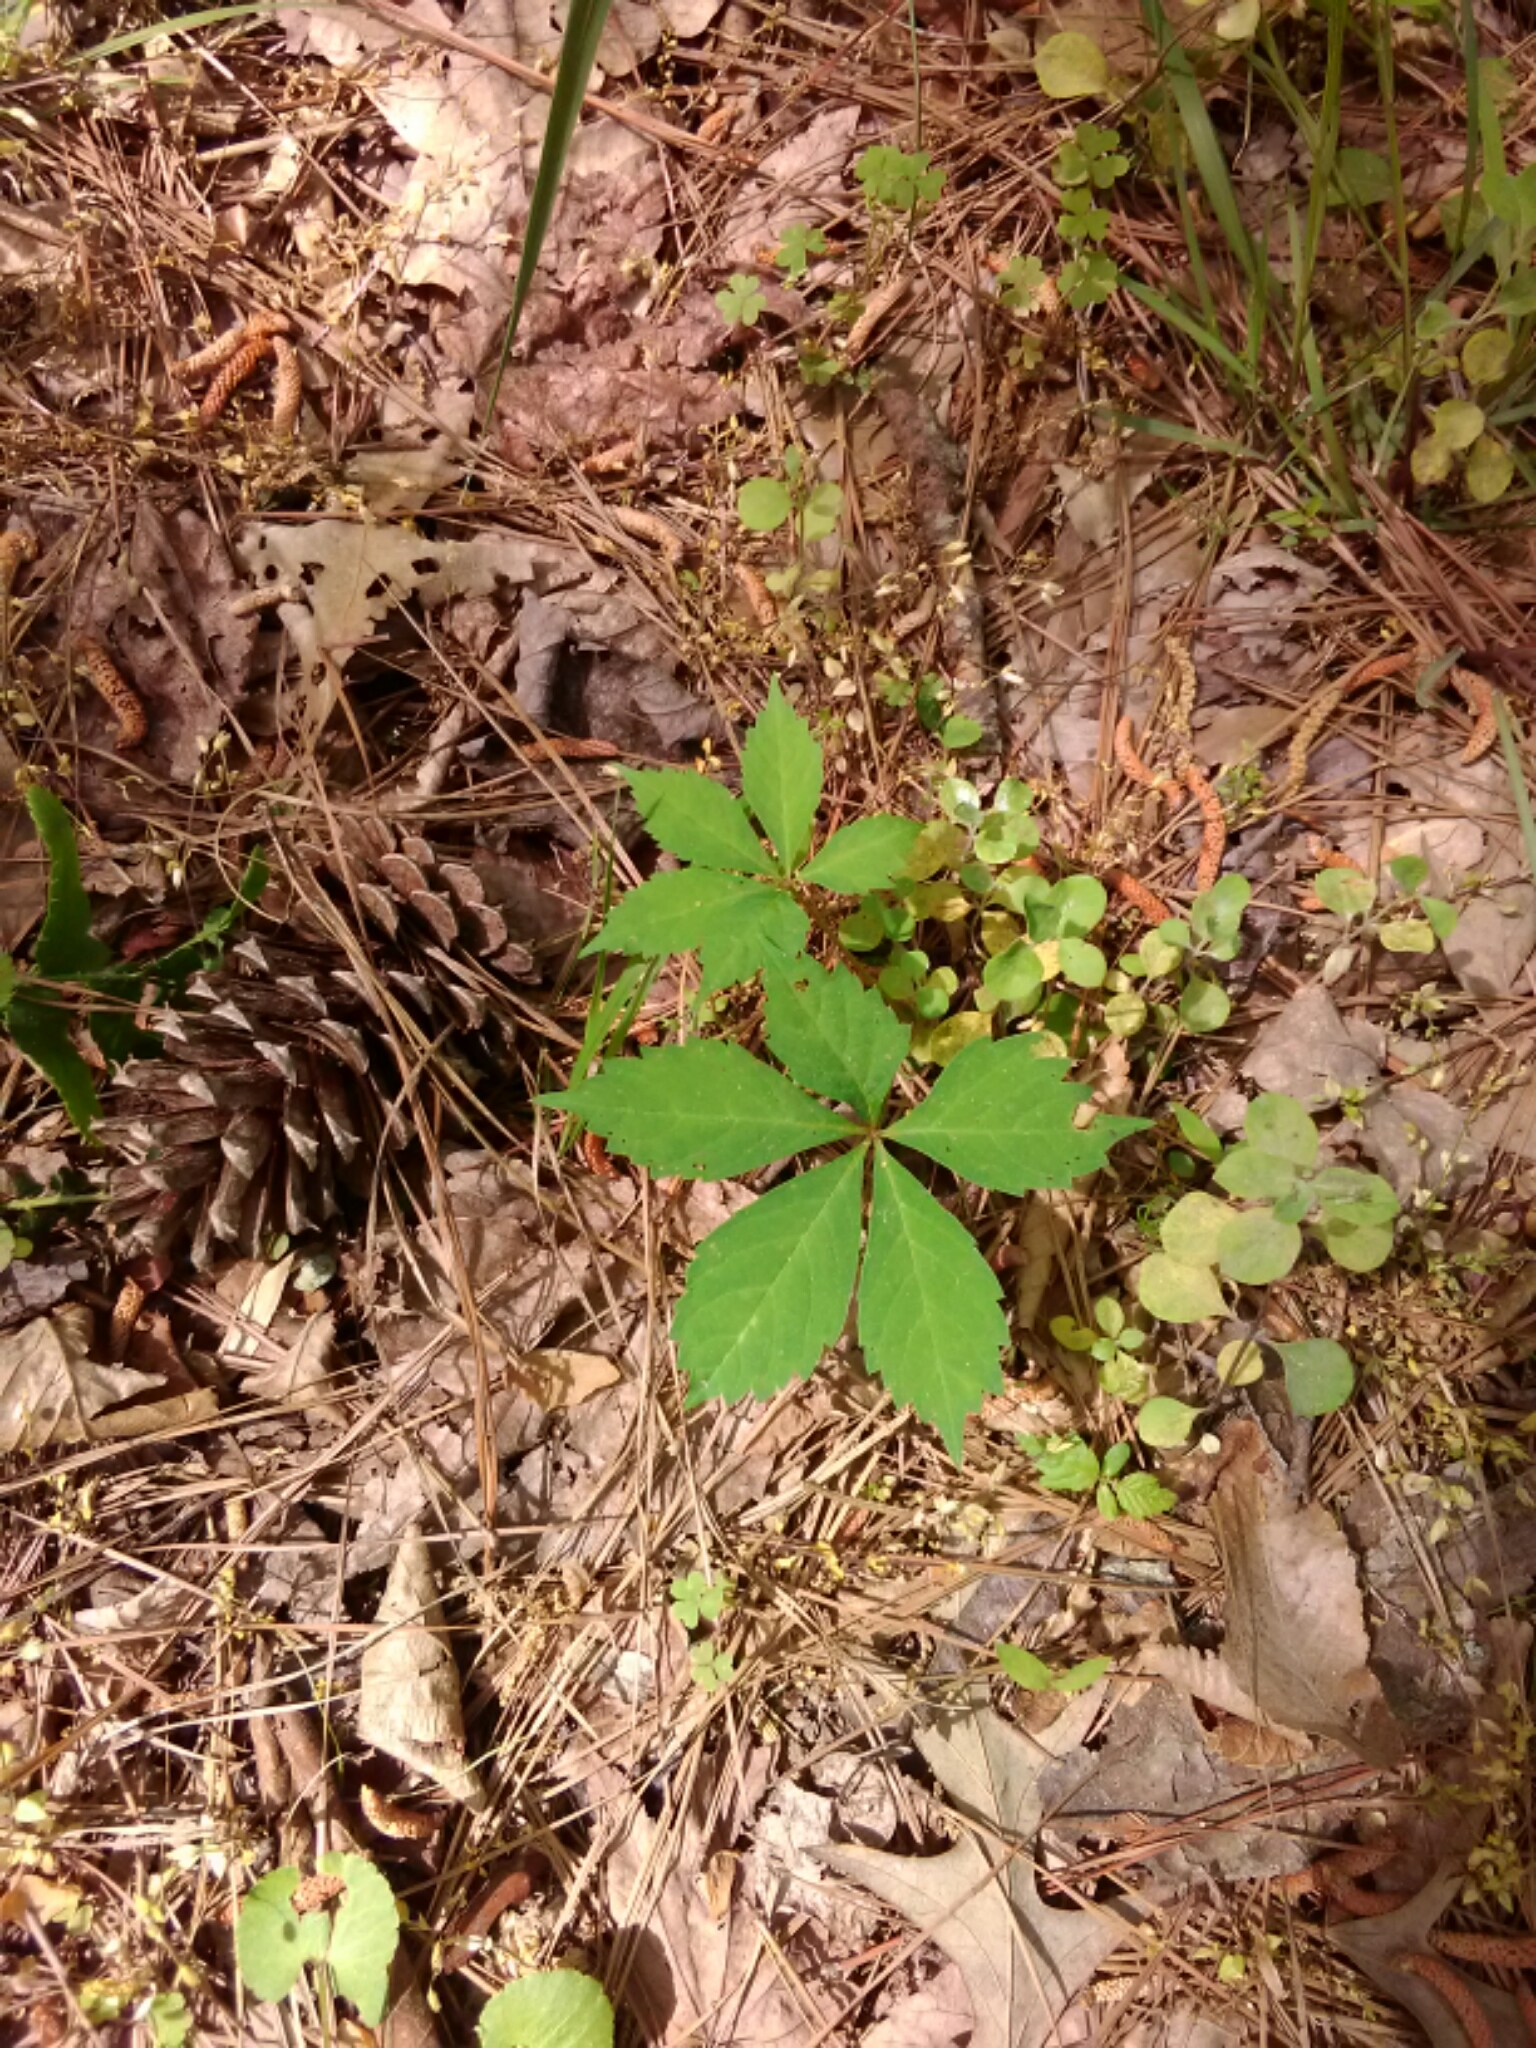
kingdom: Plantae
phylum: Tracheophyta
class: Magnoliopsida
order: Vitales
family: Vitaceae
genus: Parthenocissus
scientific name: Parthenocissus quinquefolia
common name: Virginia-creeper
